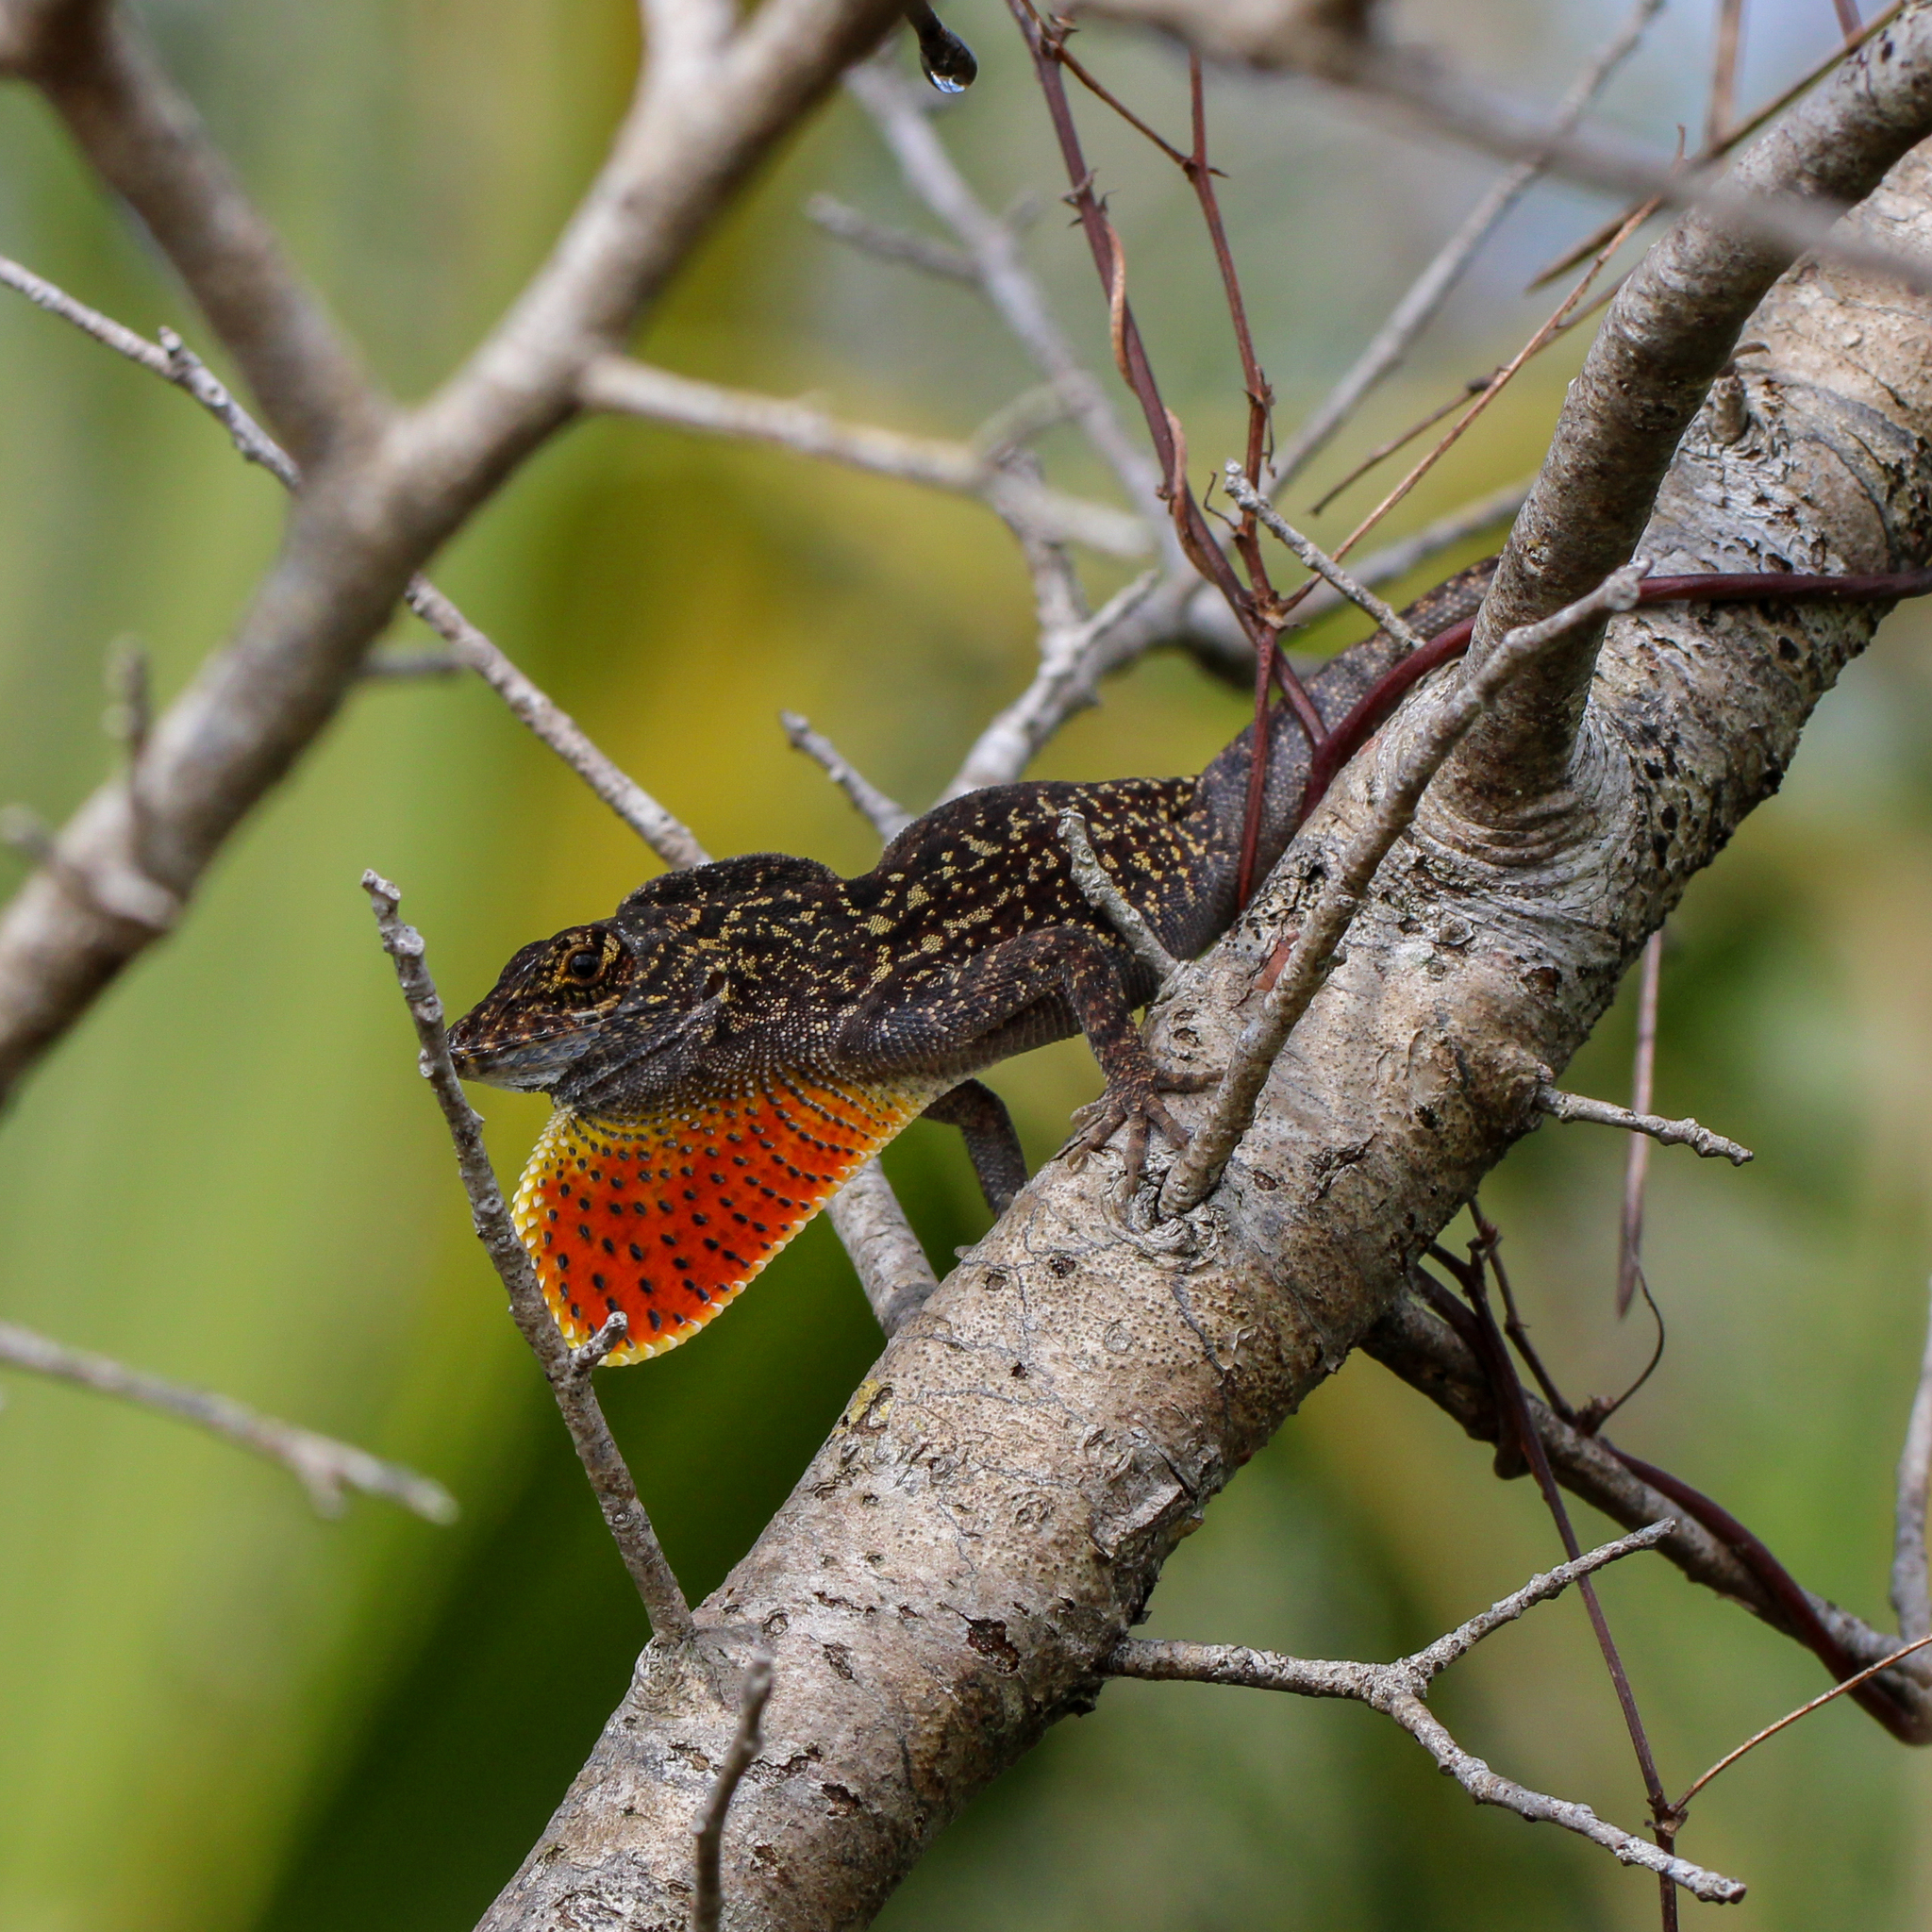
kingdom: Animalia
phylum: Chordata
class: Squamata
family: Dactyloidae
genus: Anolis
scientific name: Anolis sagrei
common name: Brown anole
